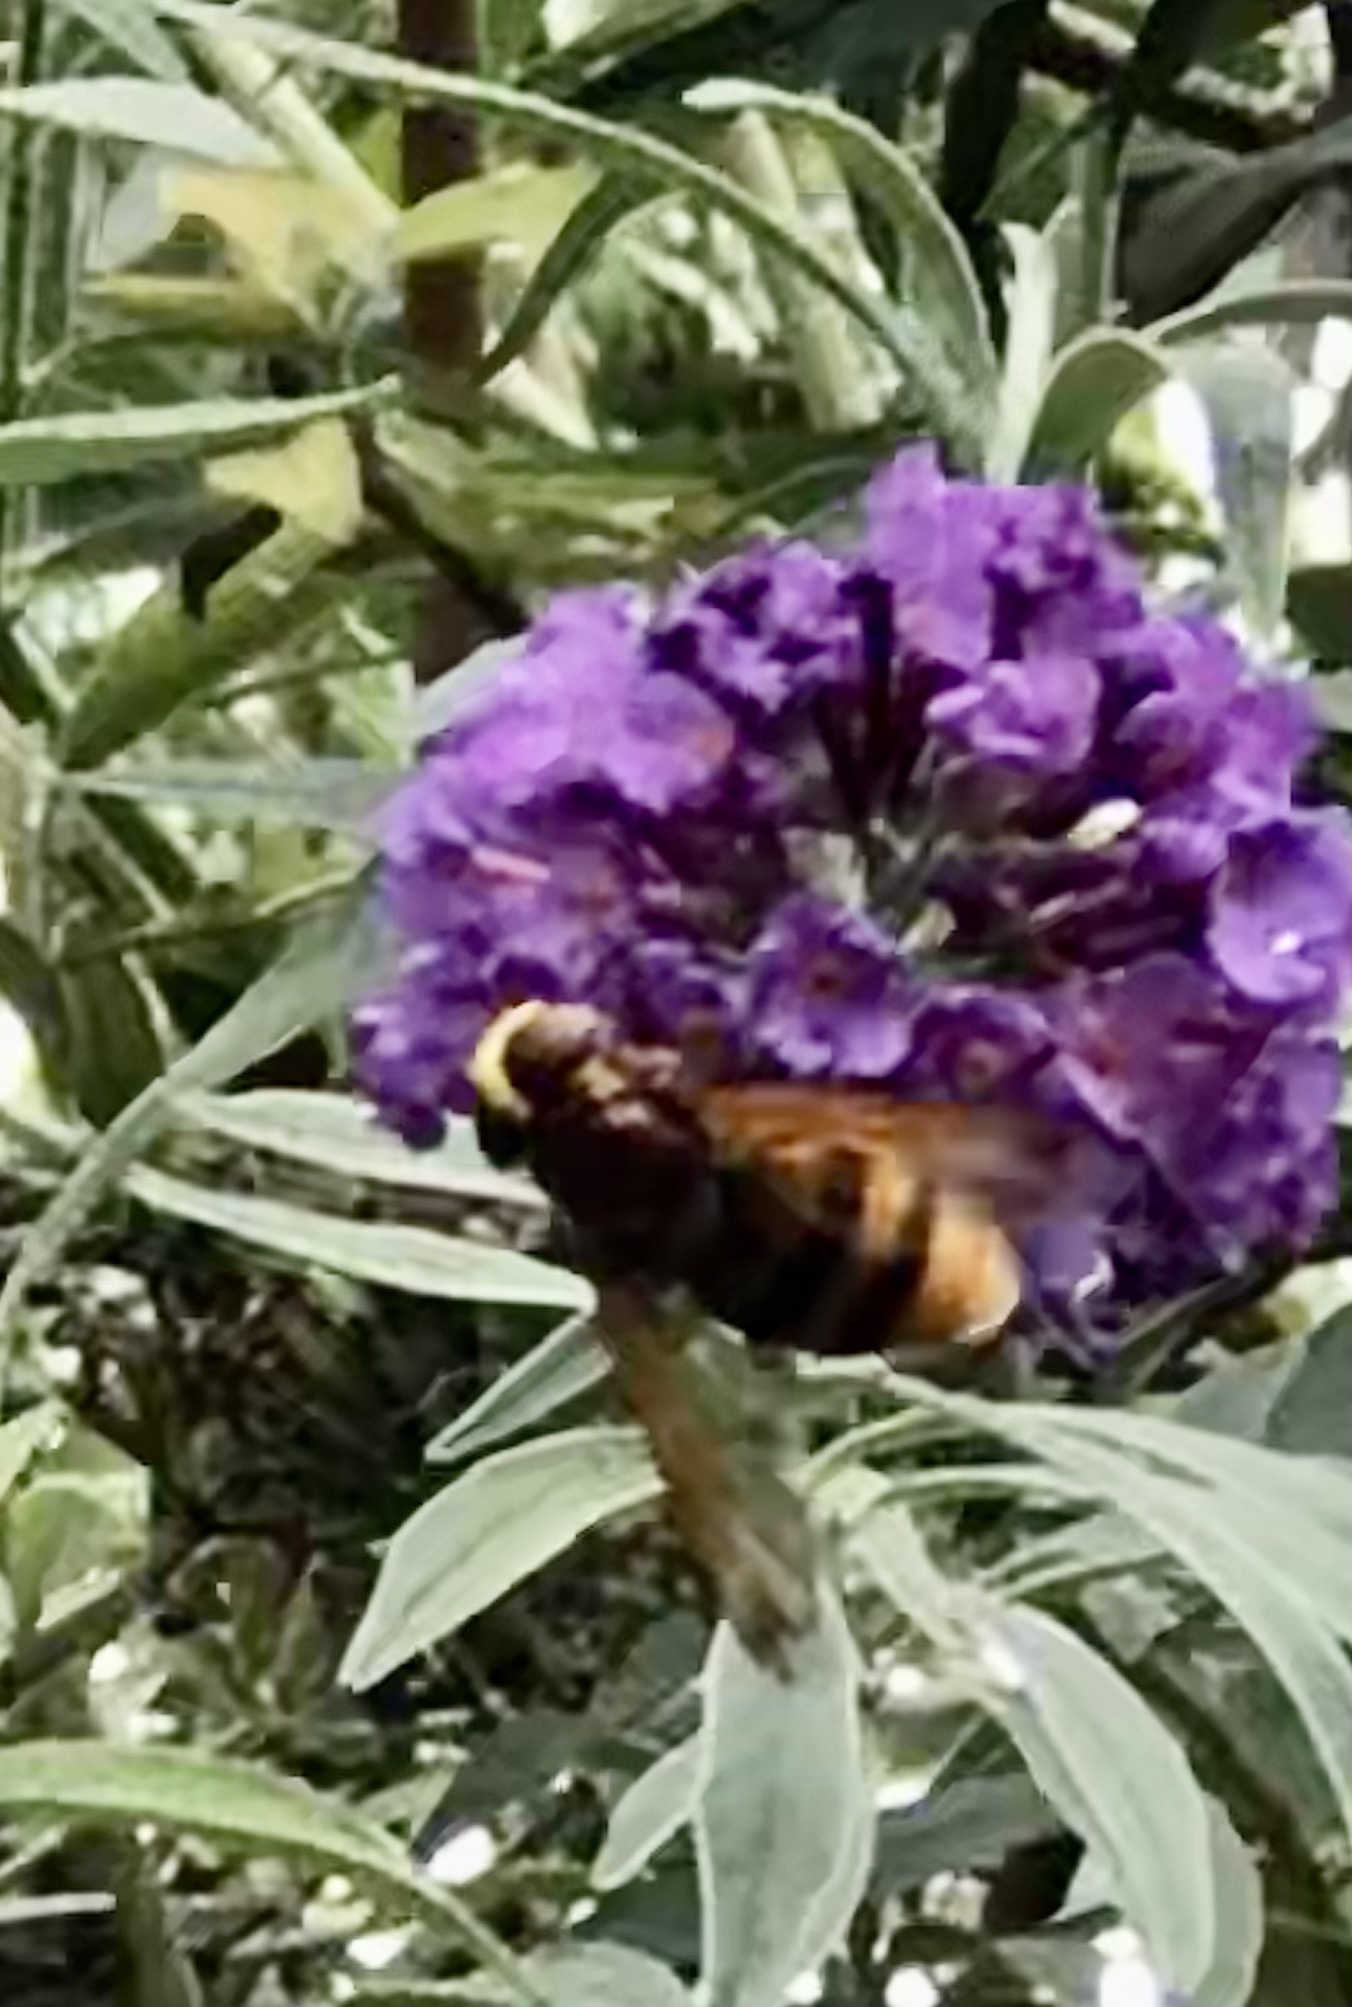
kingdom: Animalia
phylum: Arthropoda
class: Insecta
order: Diptera
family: Syrphidae
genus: Volucella
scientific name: Volucella zonaria
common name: Hornet hoverfly
